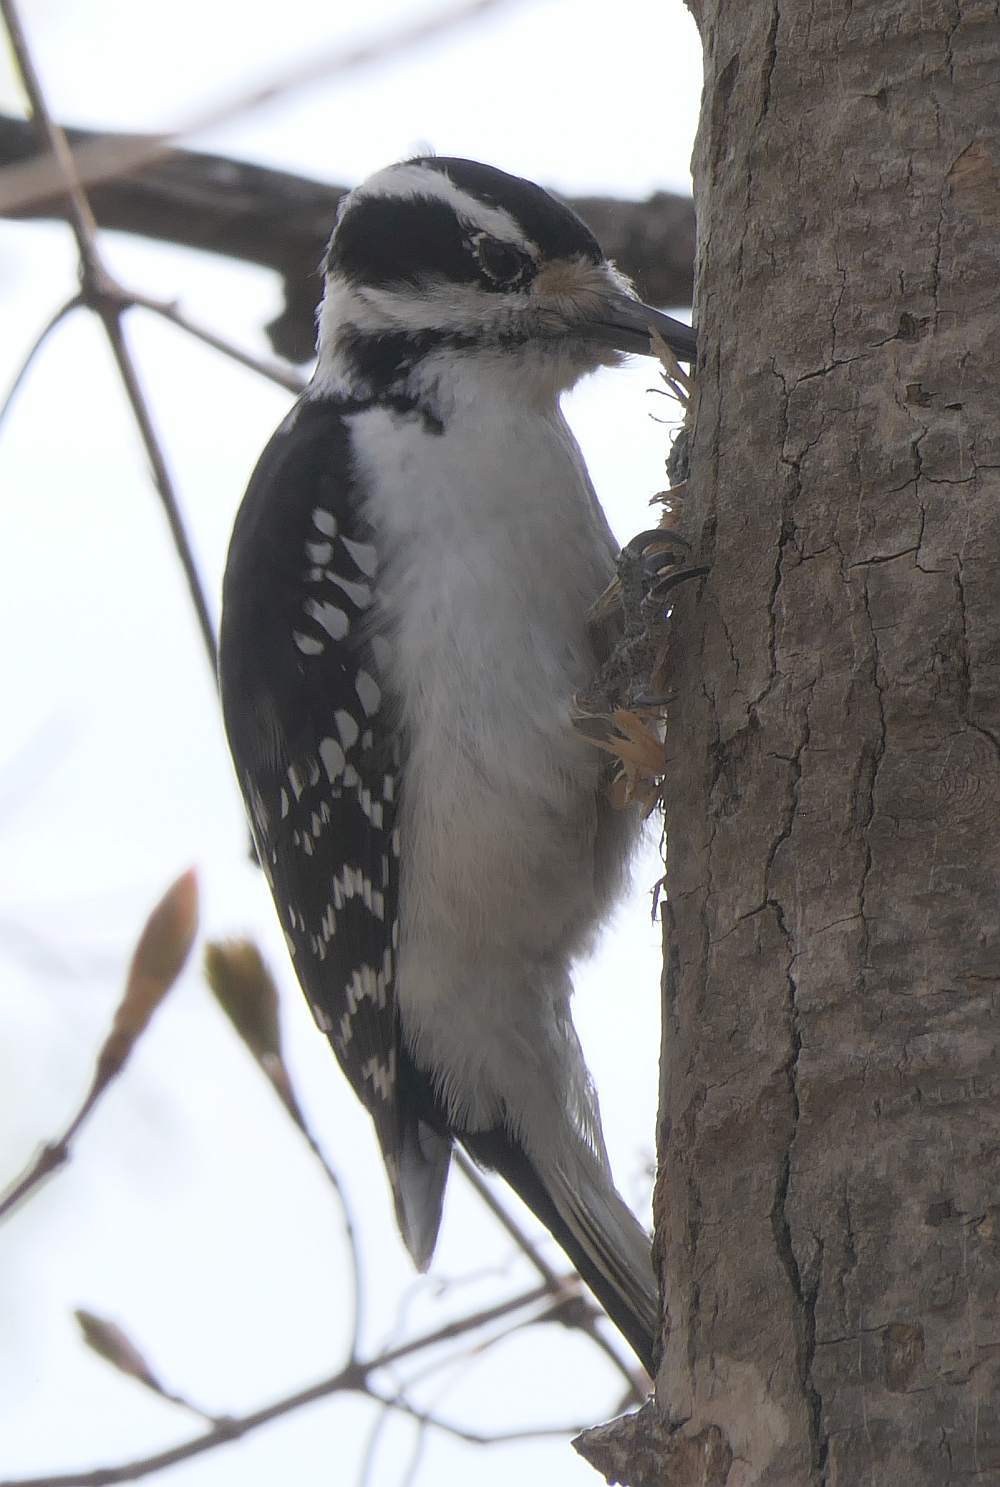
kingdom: Animalia
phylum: Chordata
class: Aves
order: Piciformes
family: Picidae
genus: Leuconotopicus
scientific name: Leuconotopicus villosus
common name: Hairy woodpecker
